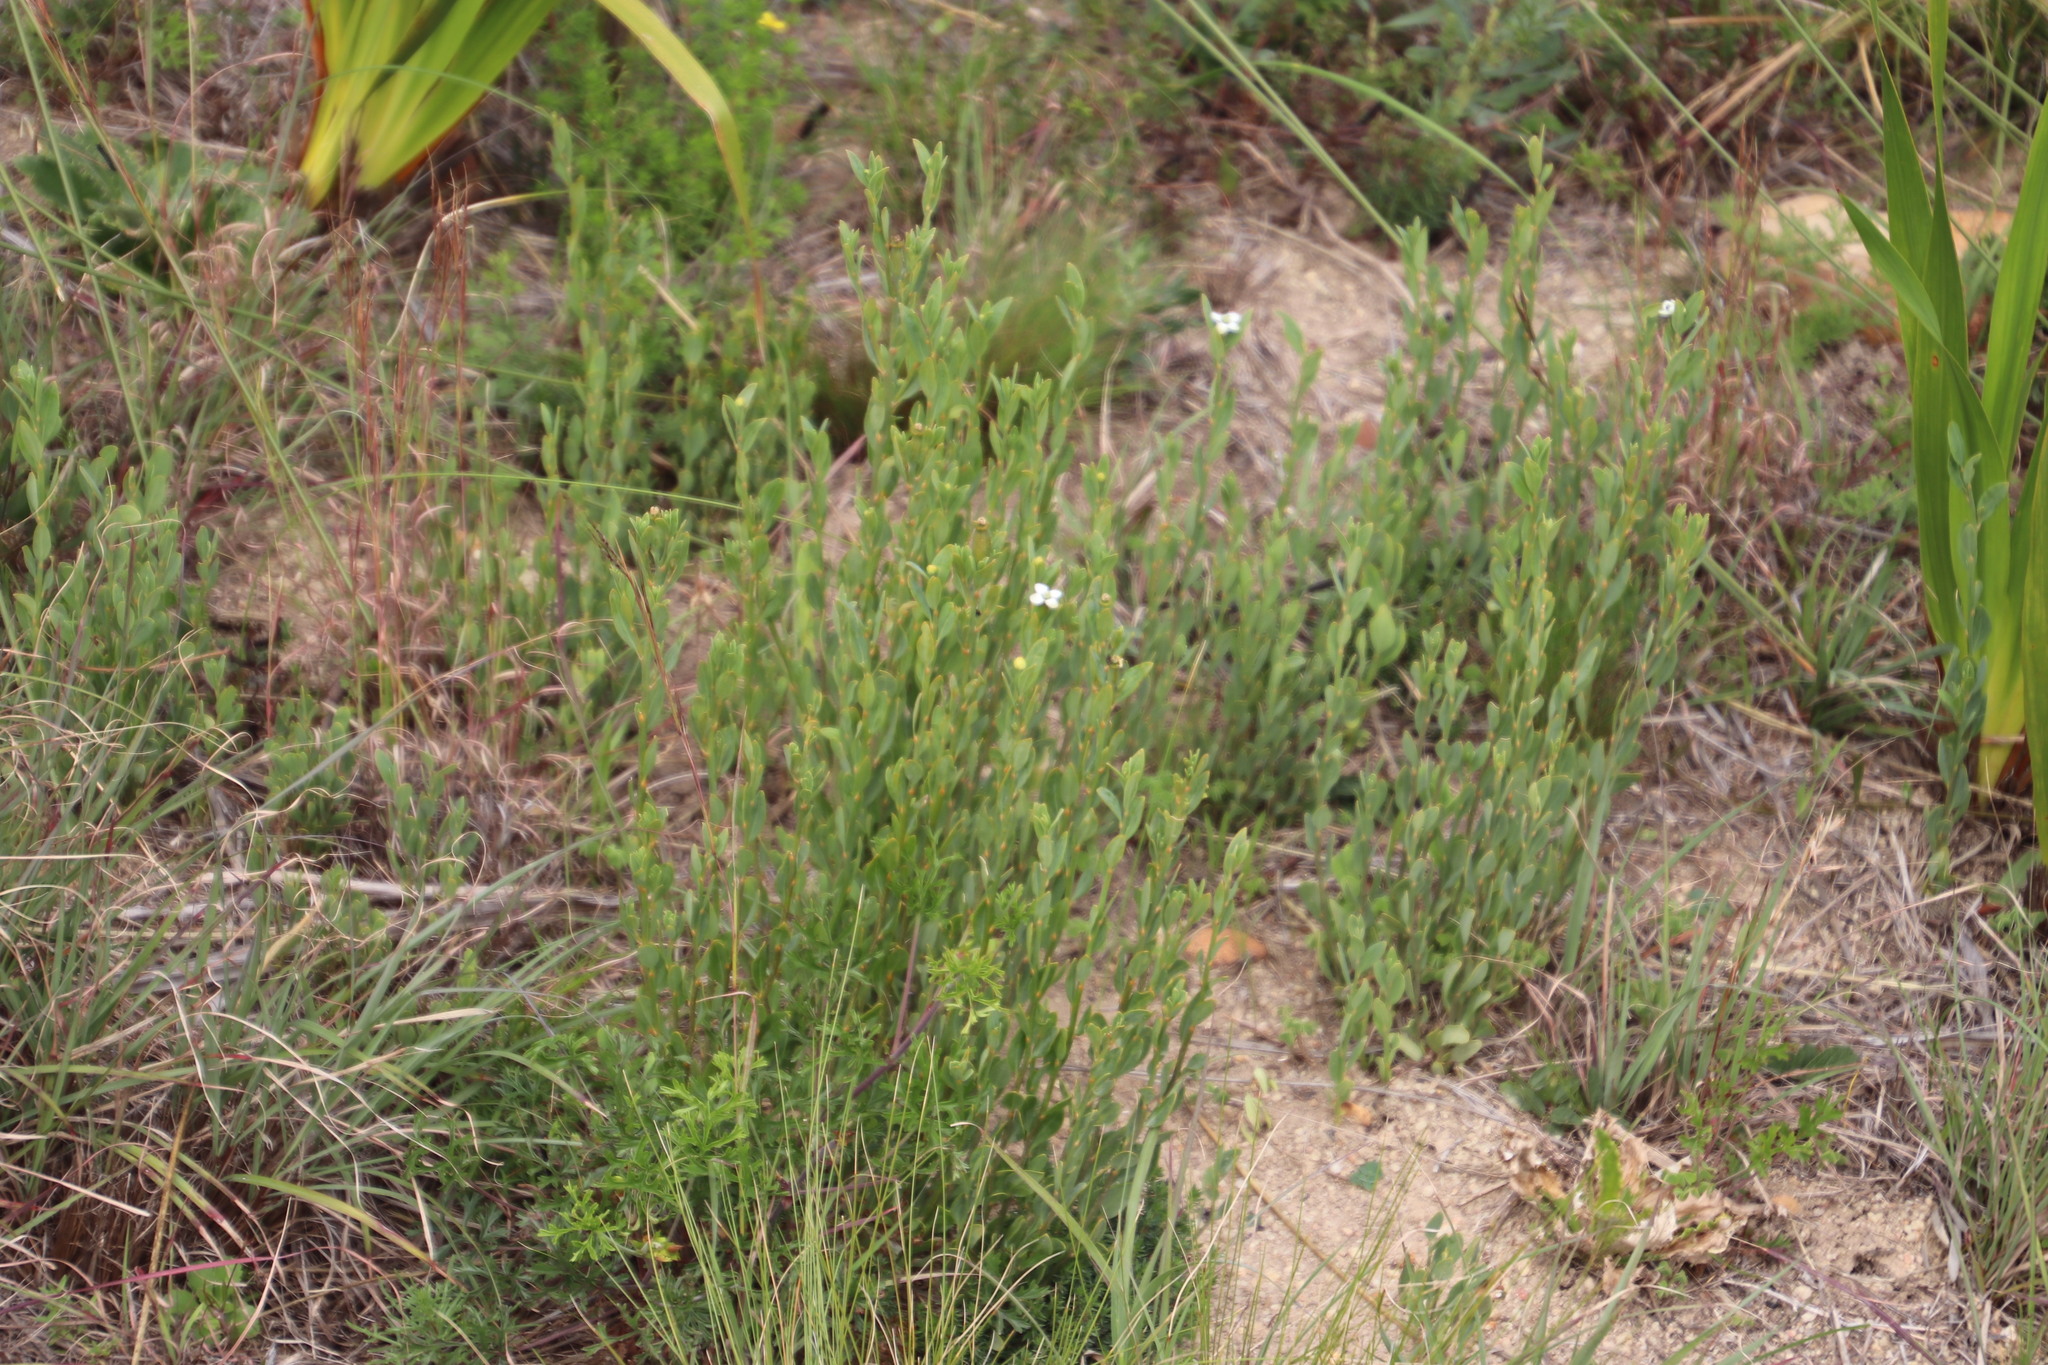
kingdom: Plantae
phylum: Tracheophyta
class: Magnoliopsida
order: Solanales
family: Montiniaceae
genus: Montinia
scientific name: Montinia caryophyllacea
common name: Wild clove-bush
